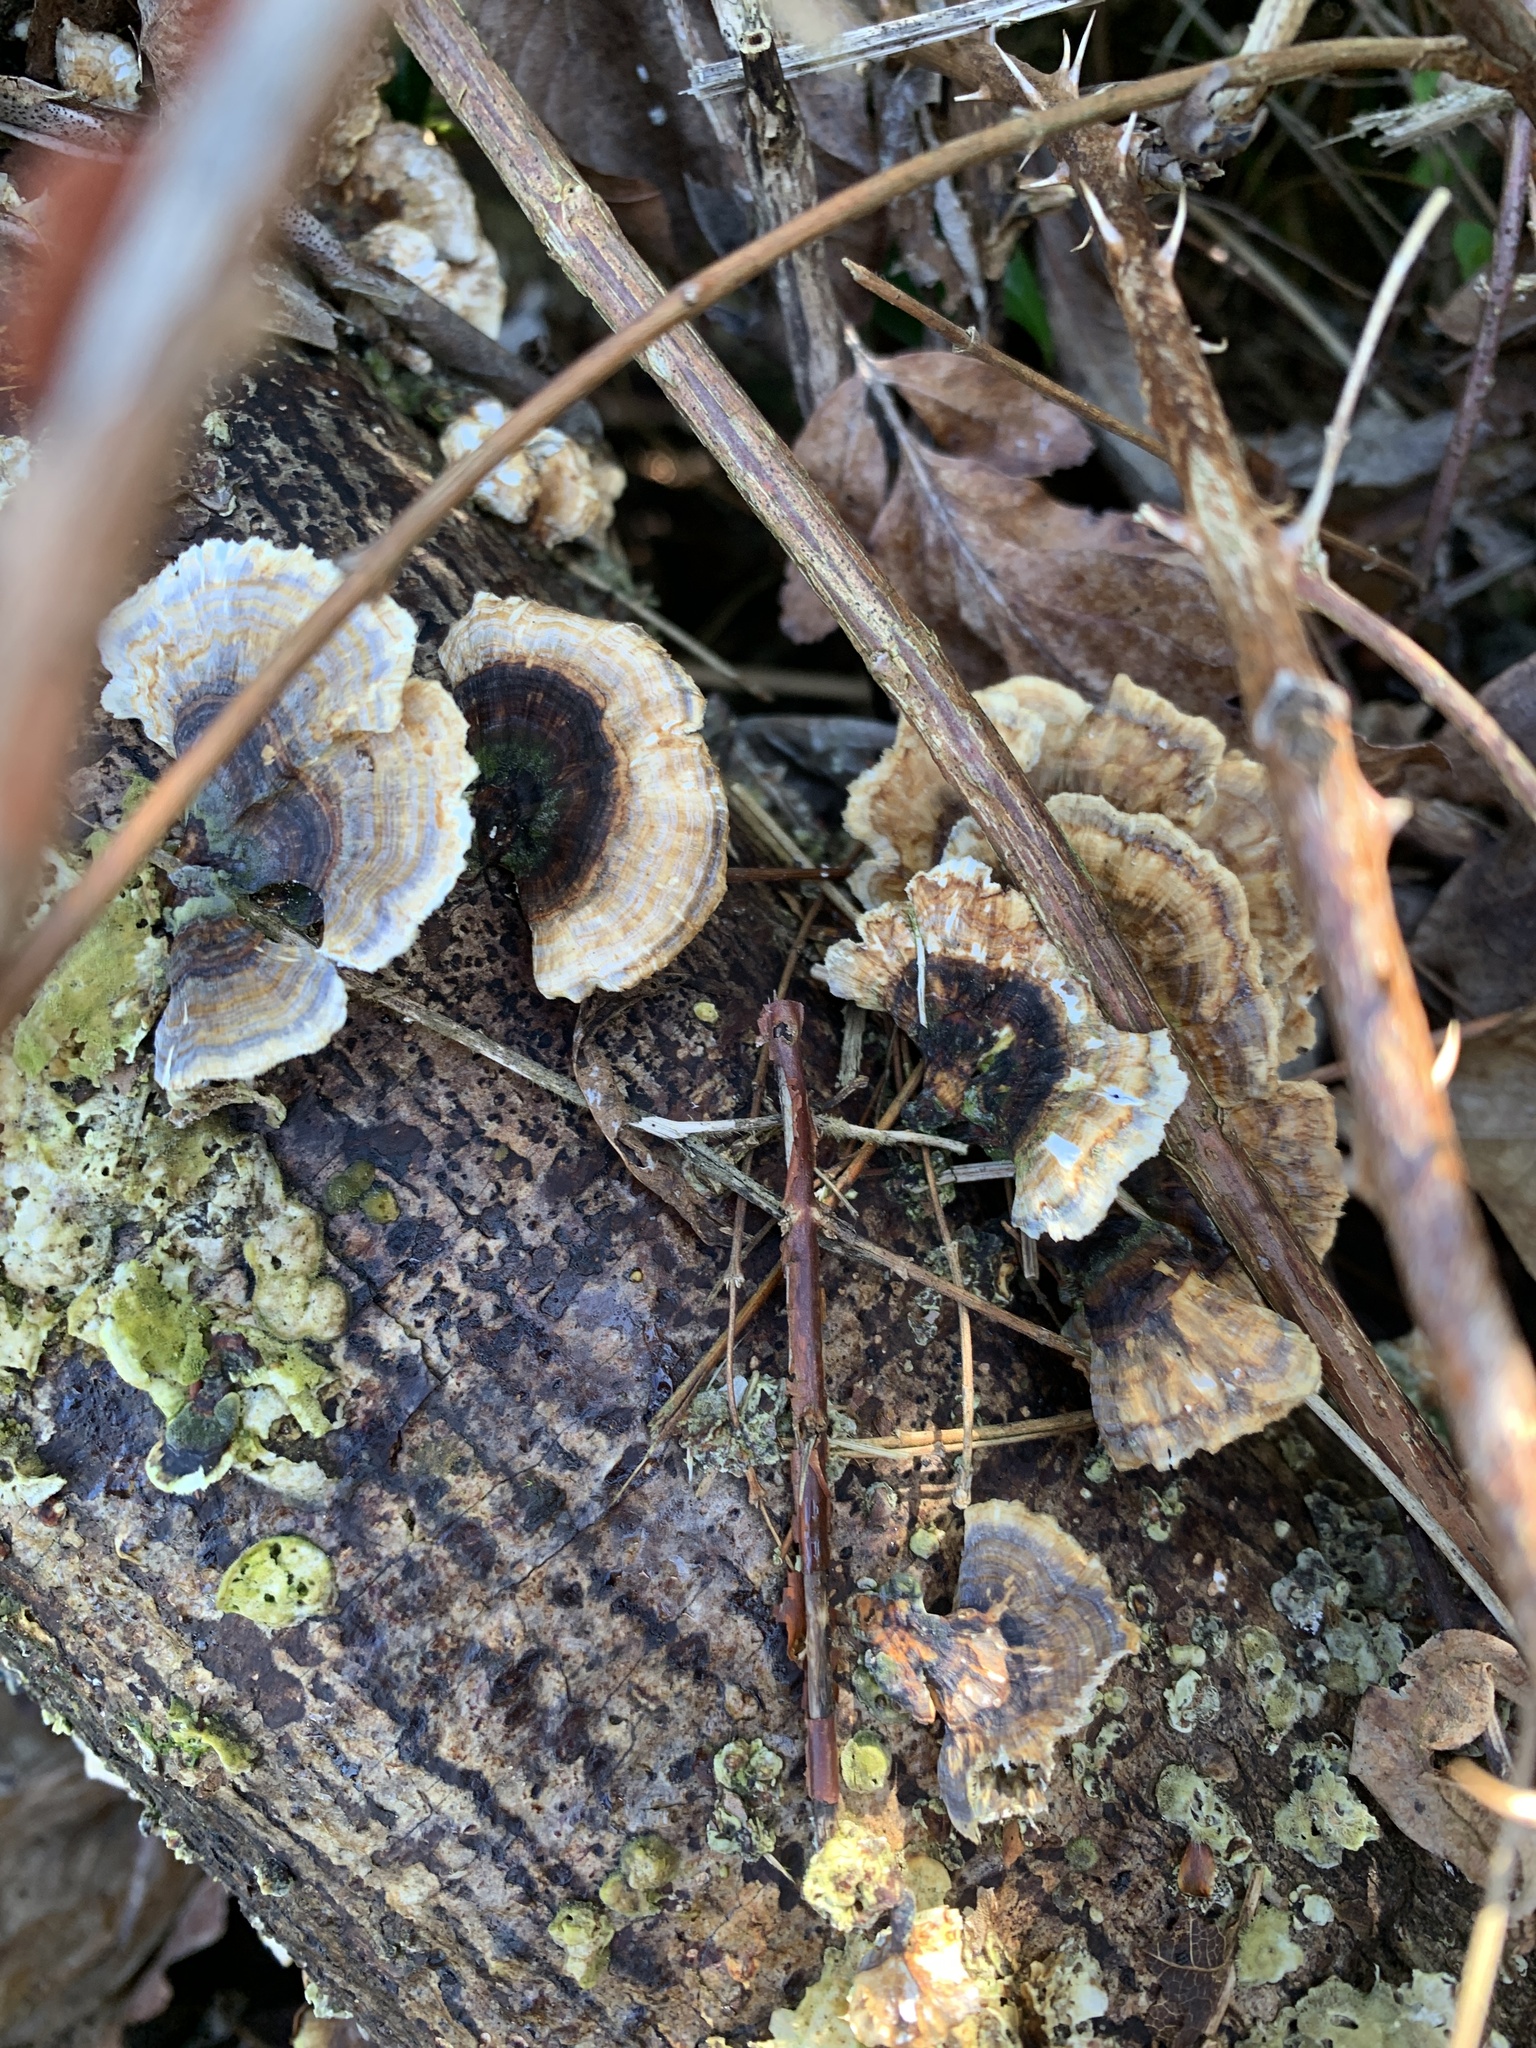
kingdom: Fungi
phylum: Basidiomycota
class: Agaricomycetes
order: Polyporales
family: Polyporaceae
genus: Trametes
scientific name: Trametes versicolor
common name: Turkeytail
